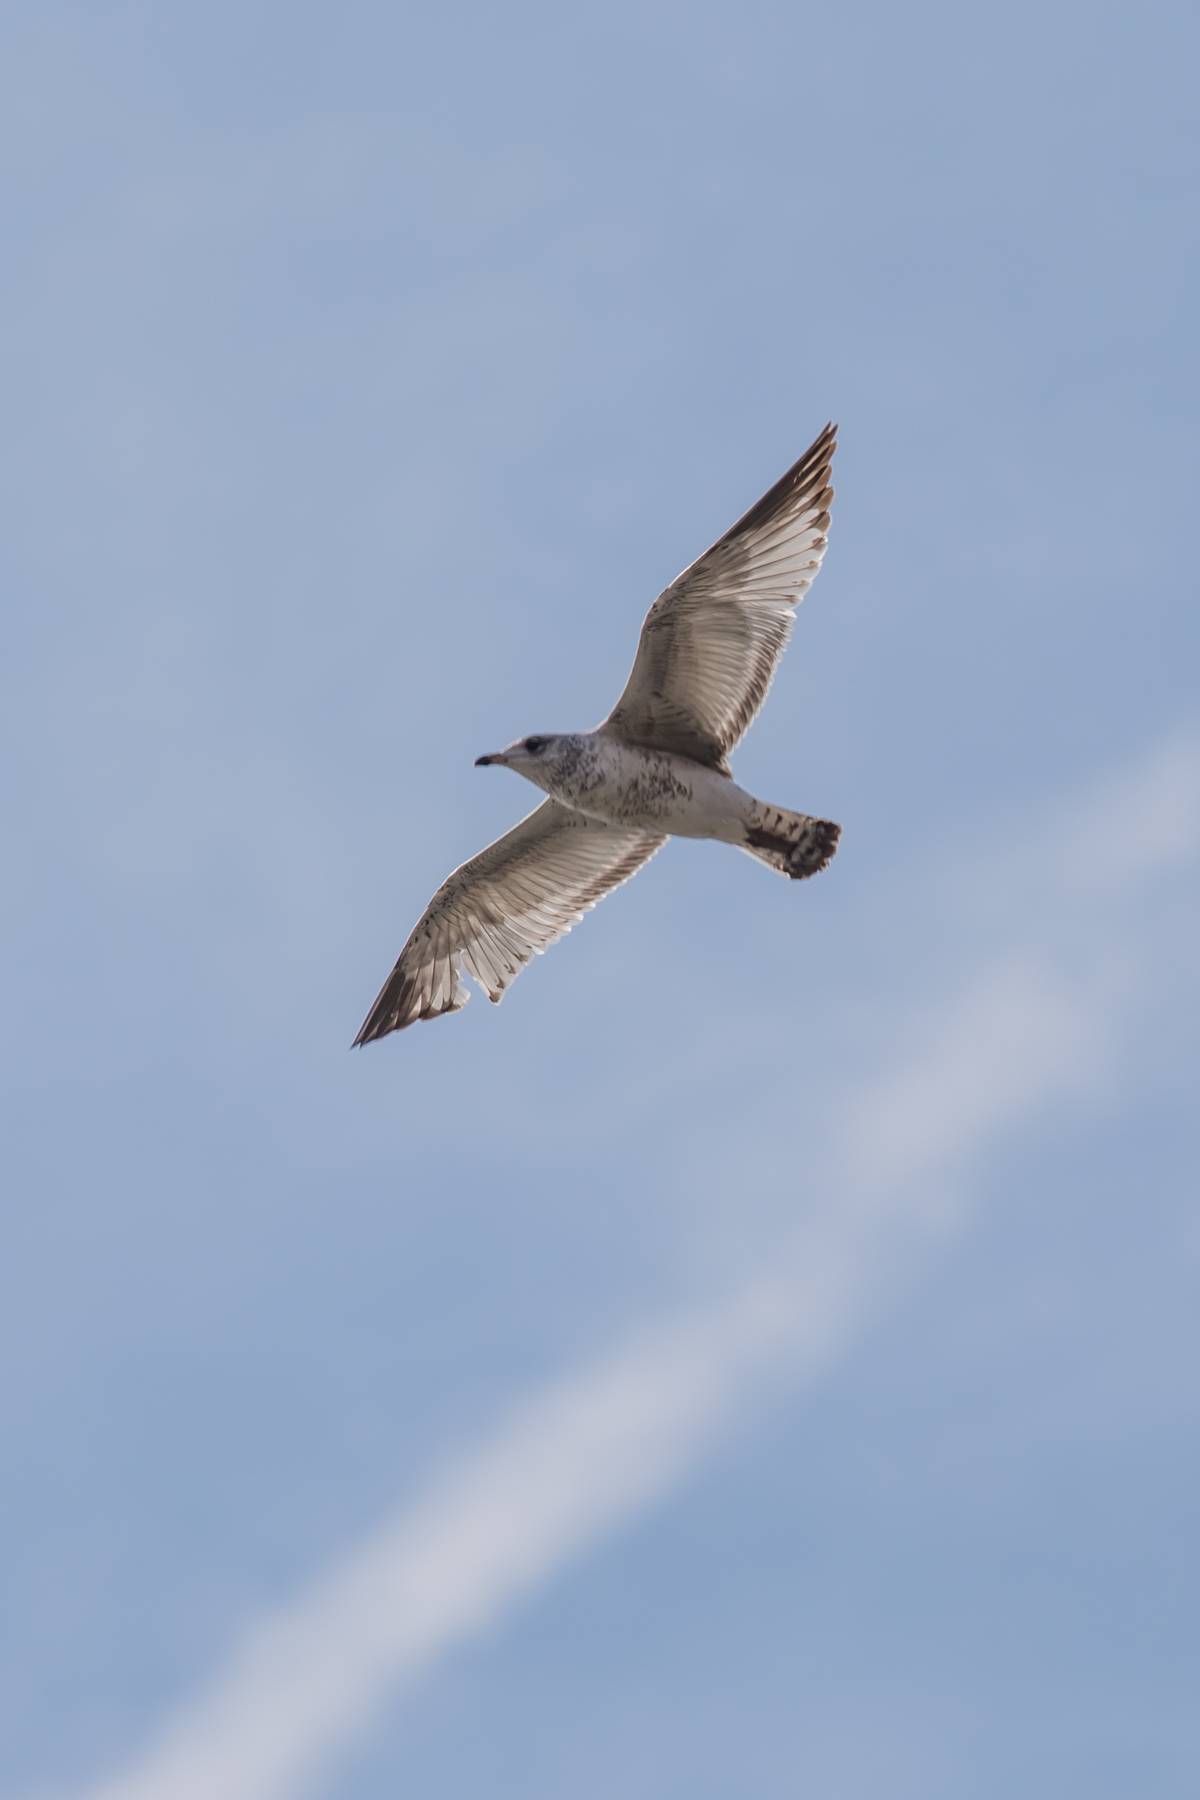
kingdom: Animalia
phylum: Chordata
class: Aves
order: Charadriiformes
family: Laridae
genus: Larus
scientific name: Larus delawarensis
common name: Ring-billed gull
